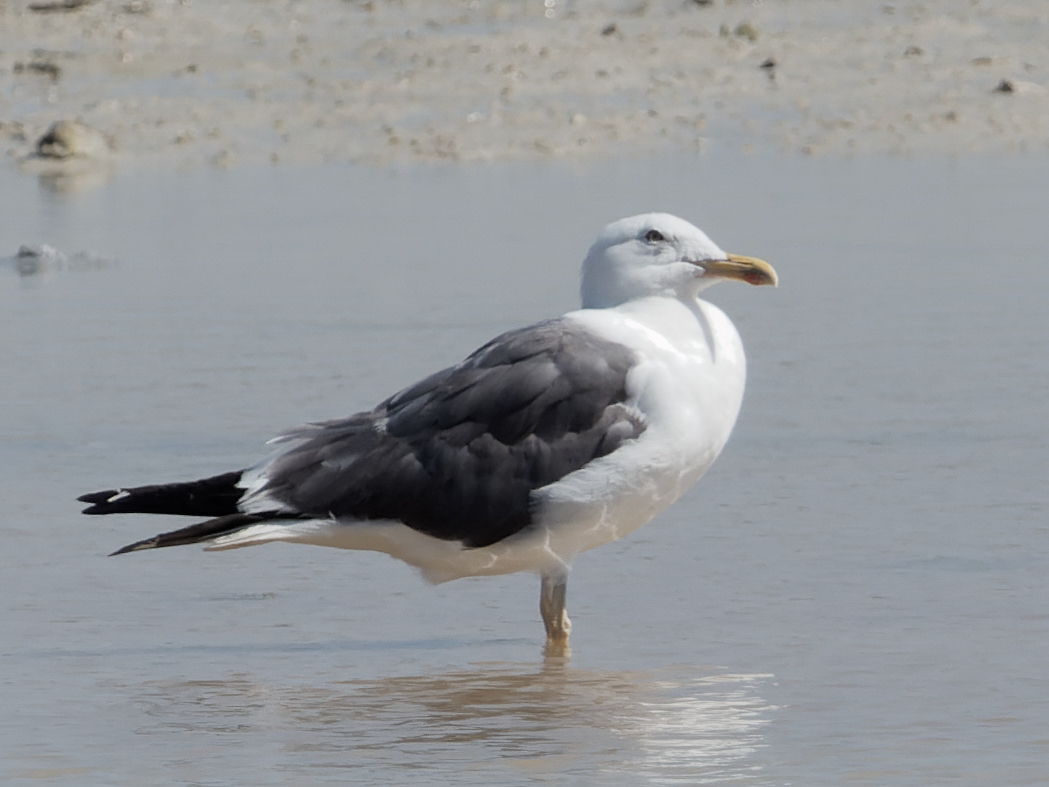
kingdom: Animalia
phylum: Chordata
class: Aves
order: Charadriiformes
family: Laridae
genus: Larus
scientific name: Larus fuscus
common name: Lesser black-backed gull
